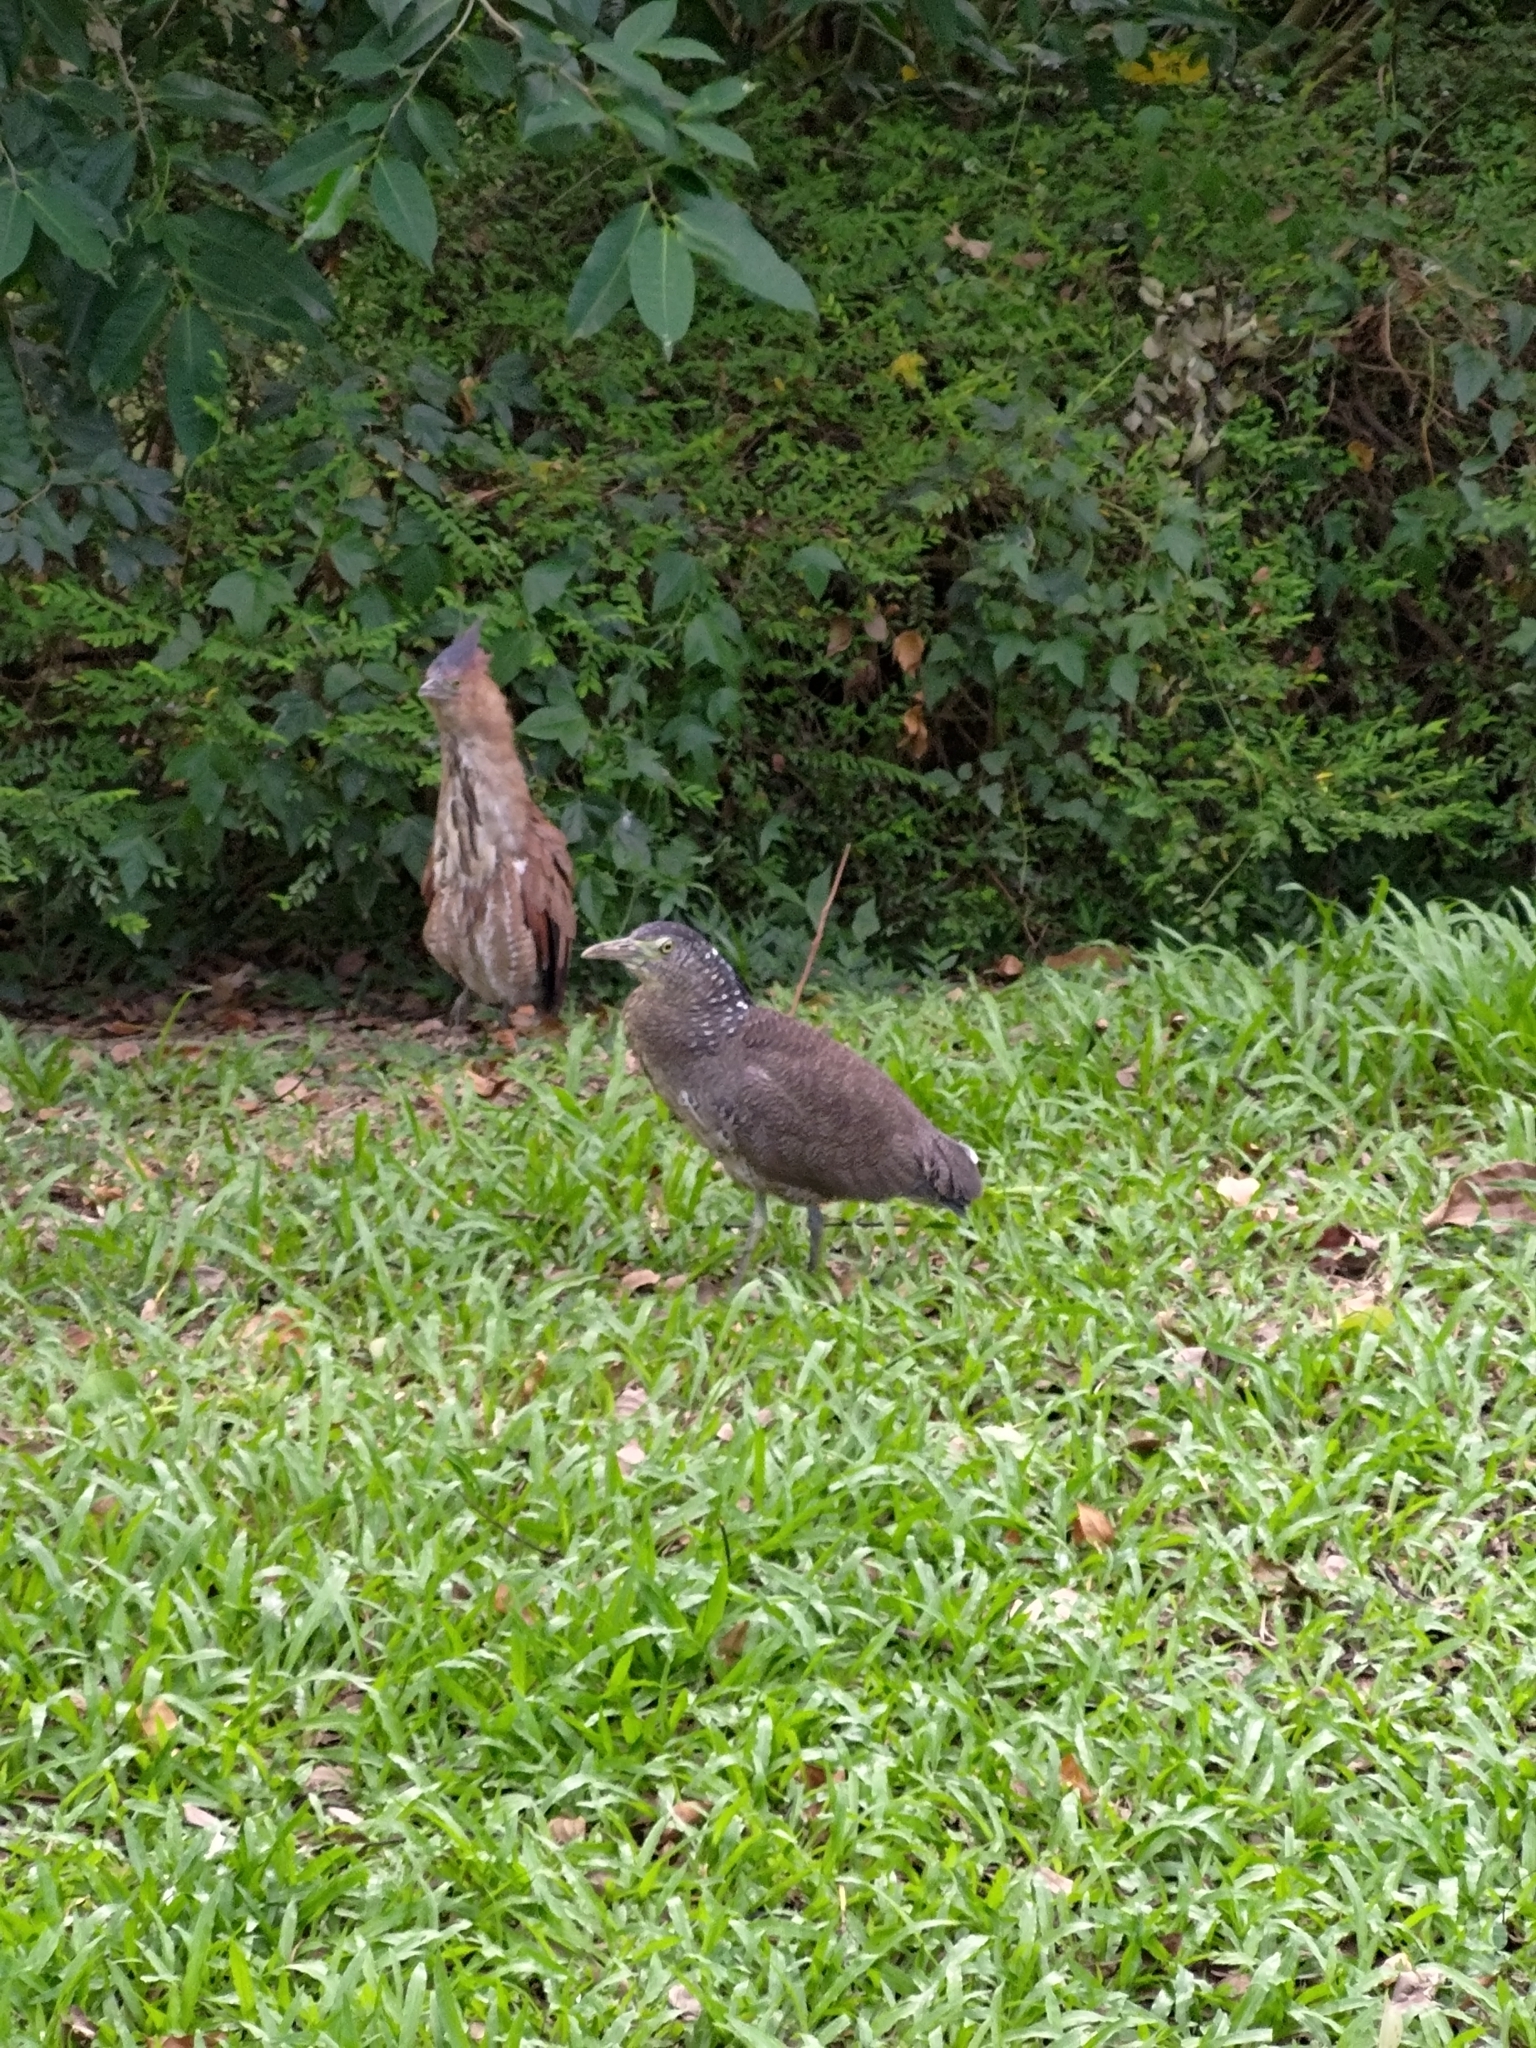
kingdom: Animalia
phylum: Chordata
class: Aves
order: Pelecaniformes
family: Ardeidae
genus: Gorsachius
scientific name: Gorsachius melanolophus
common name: Malayan night heron
